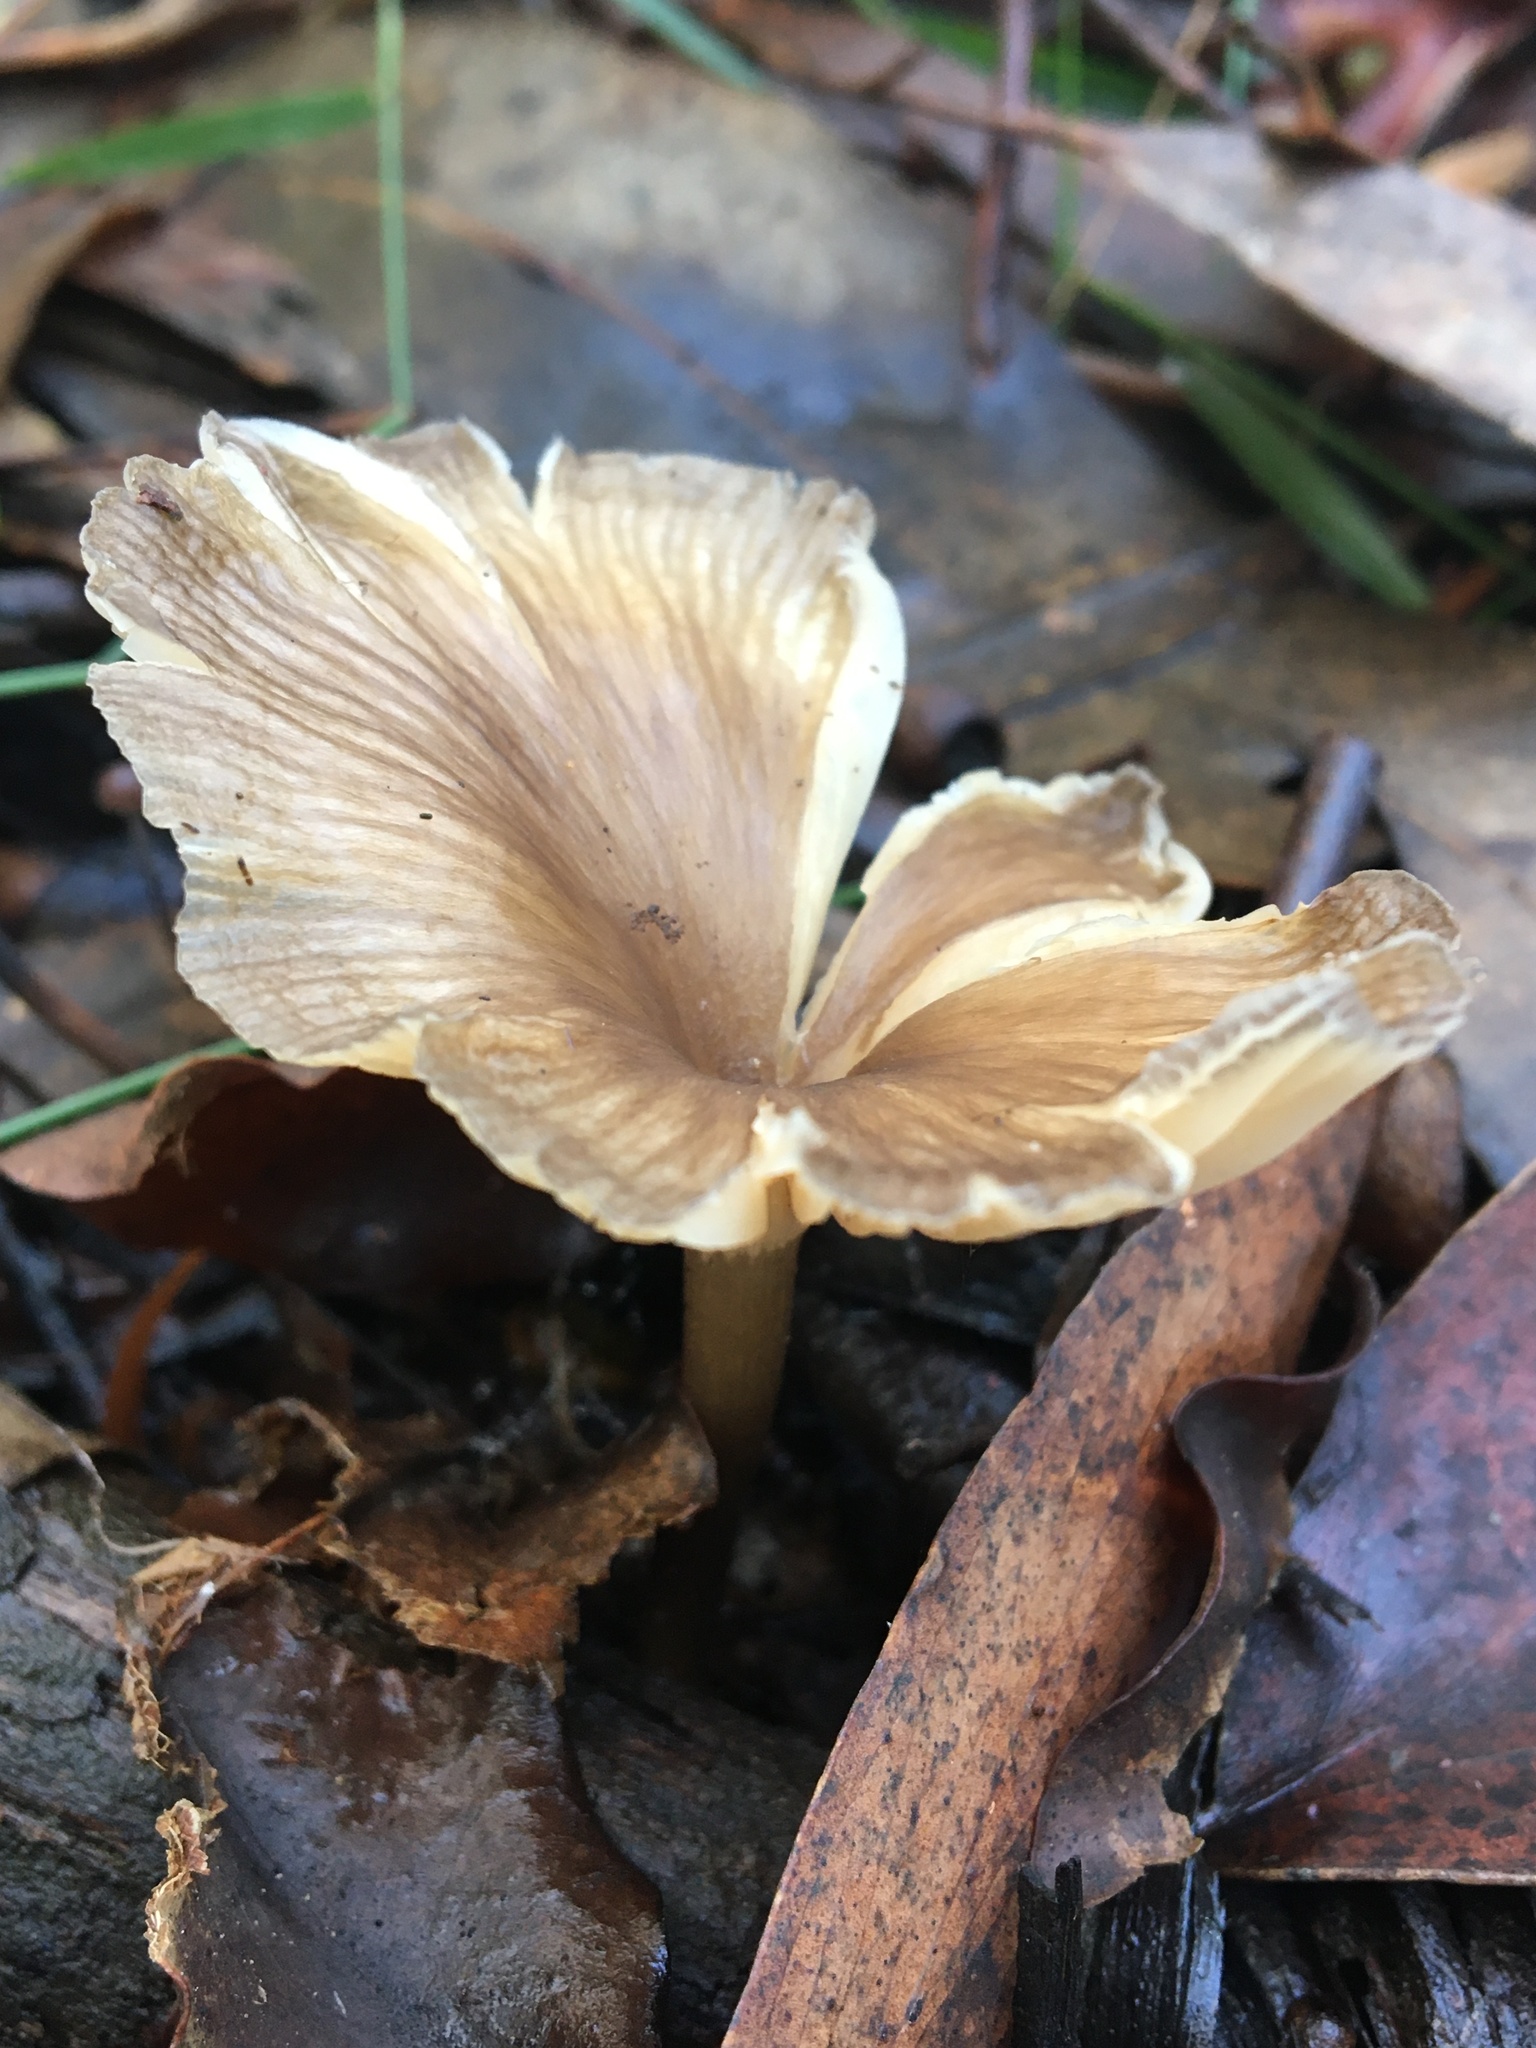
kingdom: Fungi
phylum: Basidiomycota
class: Agaricomycetes
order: Agaricales
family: Marasmiaceae
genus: Trogia
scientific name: Trogia straminea
